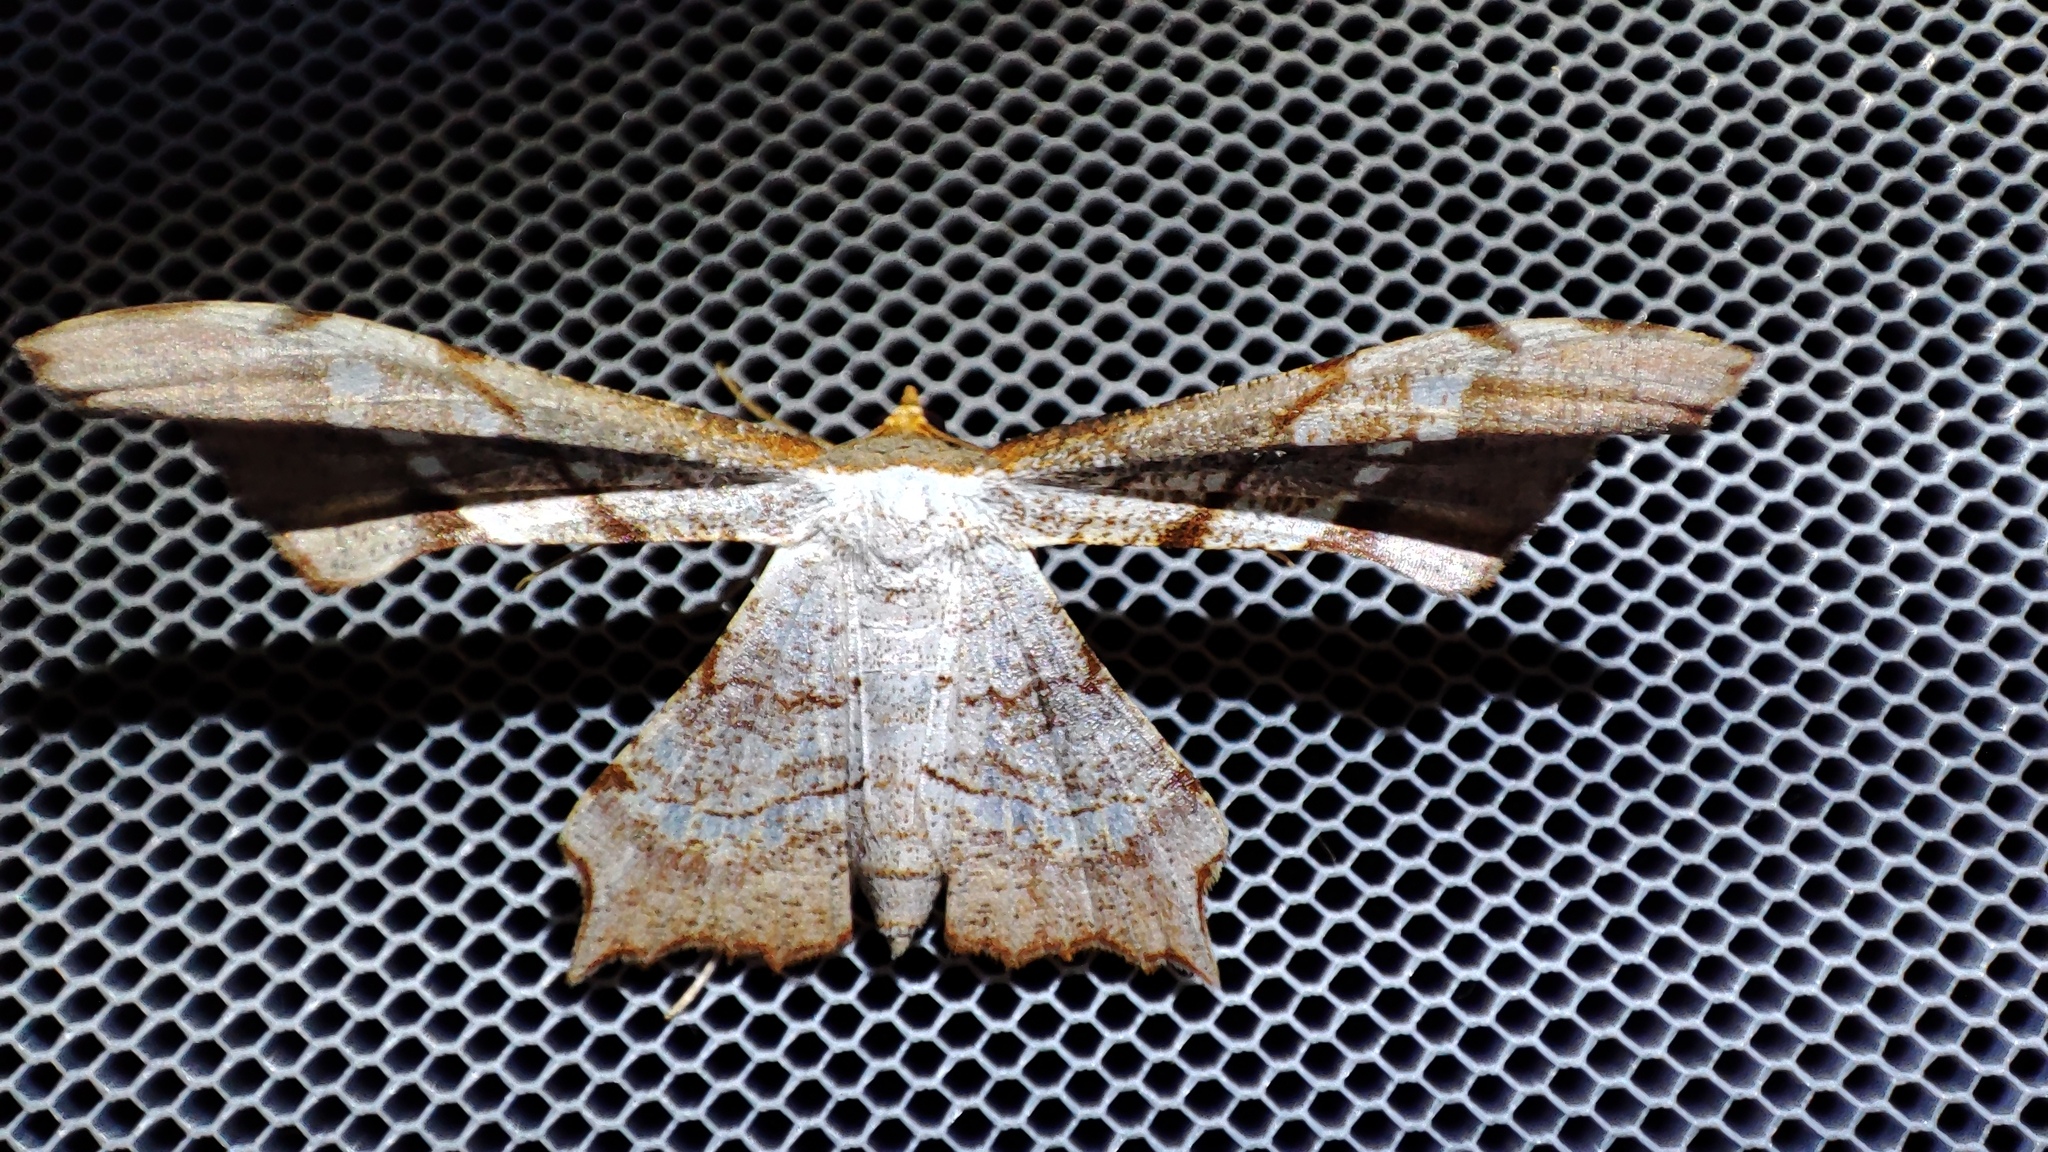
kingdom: Animalia
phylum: Arthropoda
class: Insecta
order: Lepidoptera
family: Geometridae
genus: Psilocladia
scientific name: Psilocladia obliquata
